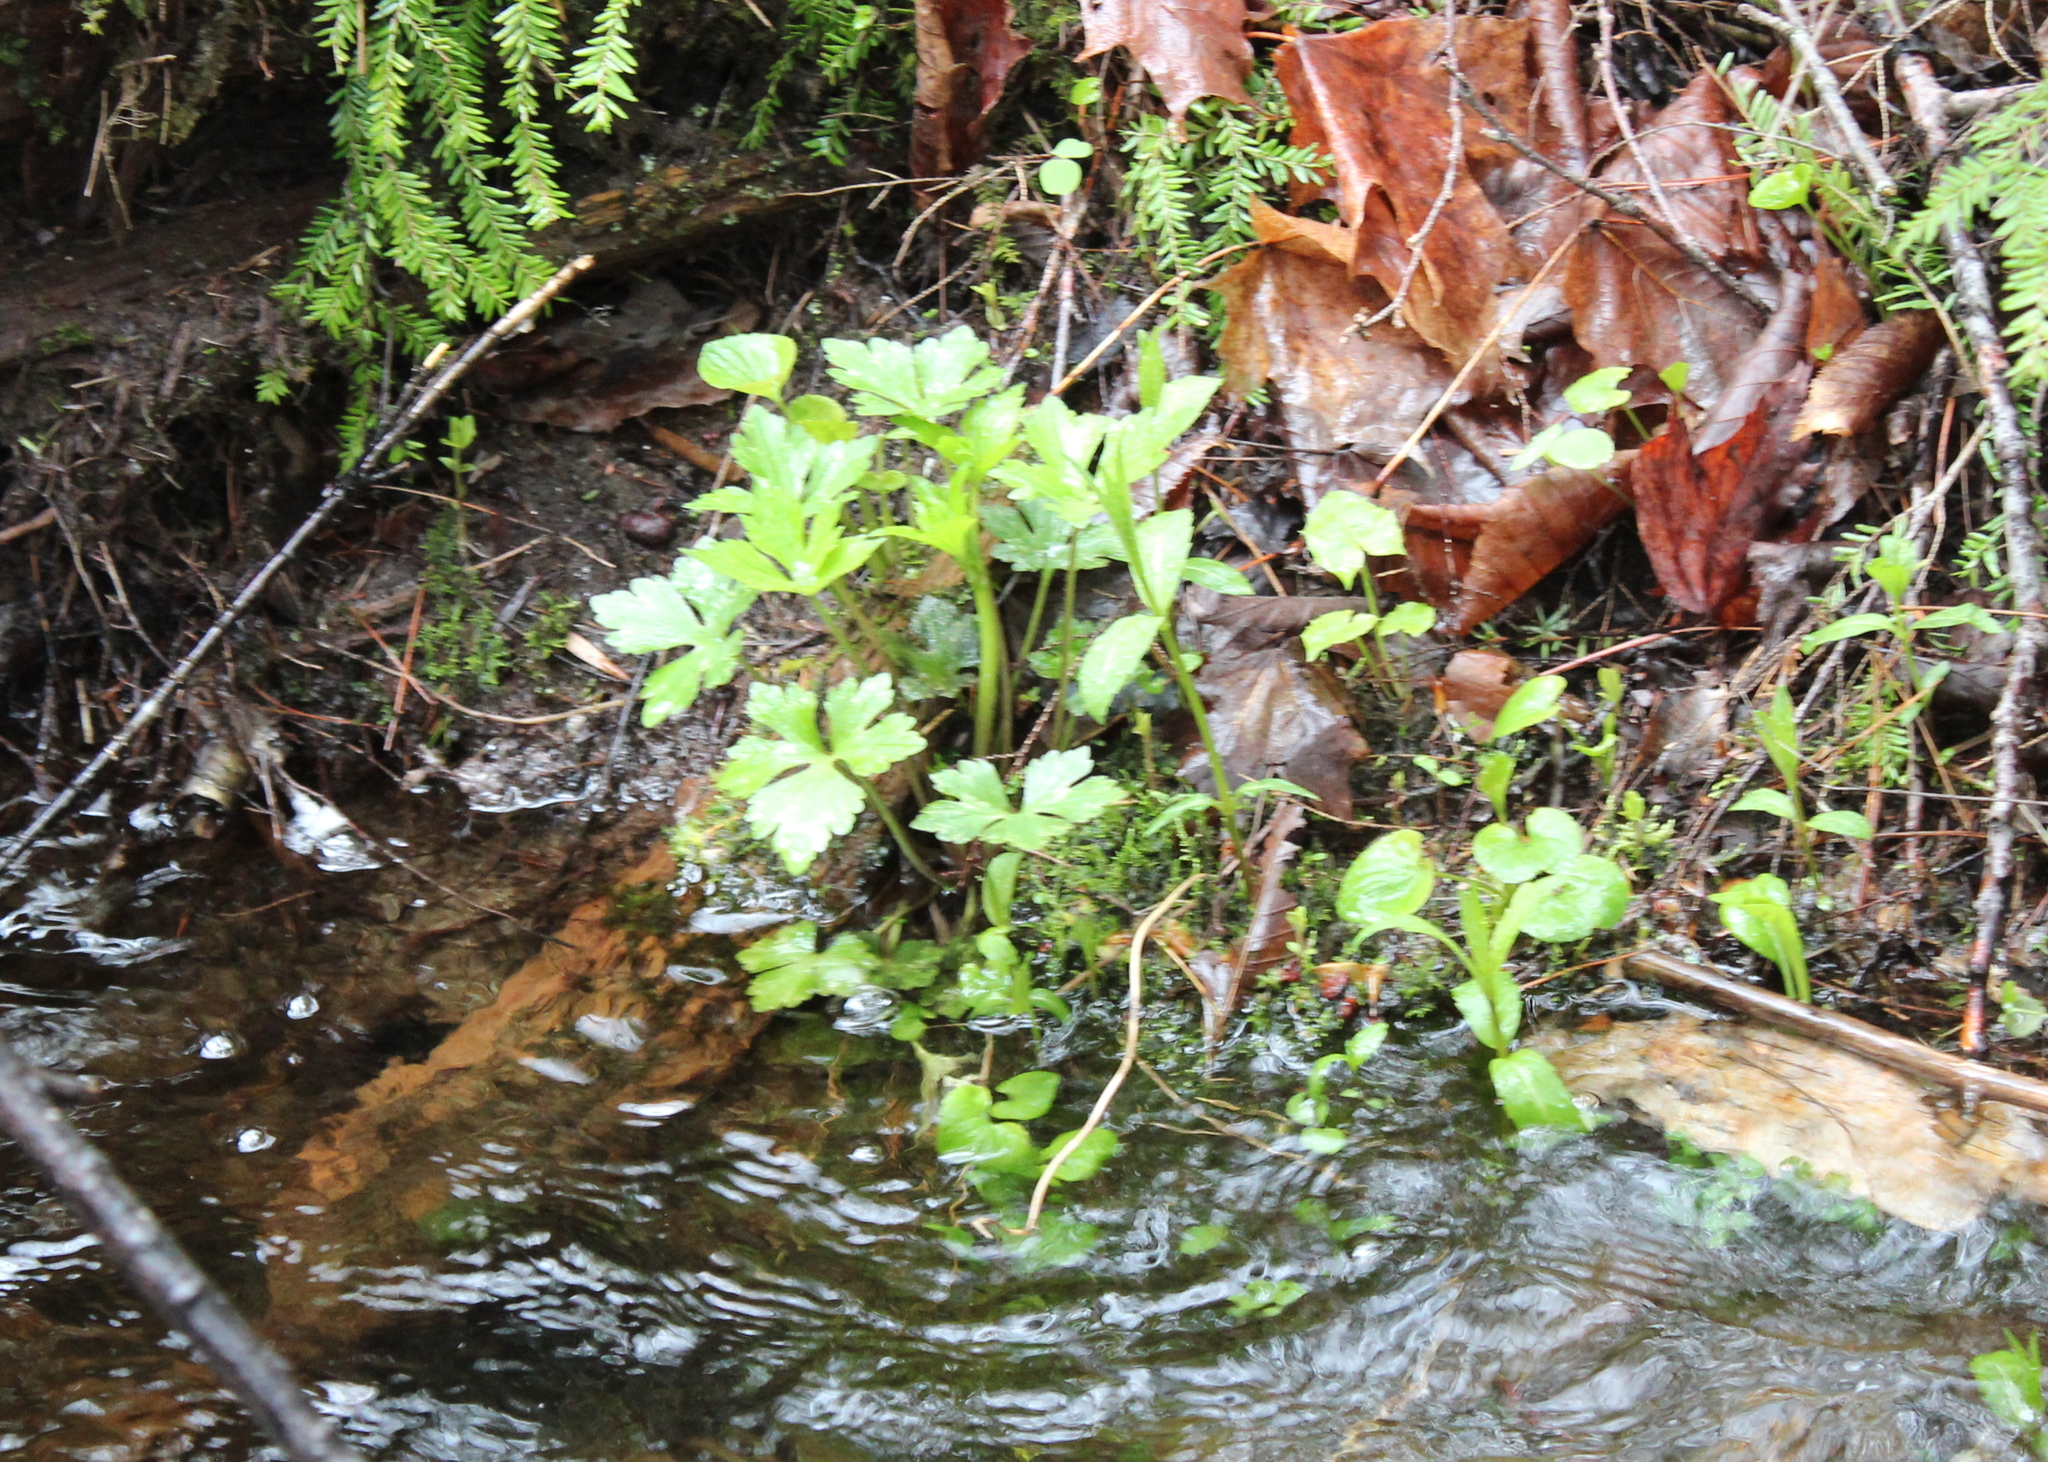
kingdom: Plantae
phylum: Tracheophyta
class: Magnoliopsida
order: Ranunculales
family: Ranunculaceae
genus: Ranunculus
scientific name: Ranunculus recurvatus
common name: Blisterwort
